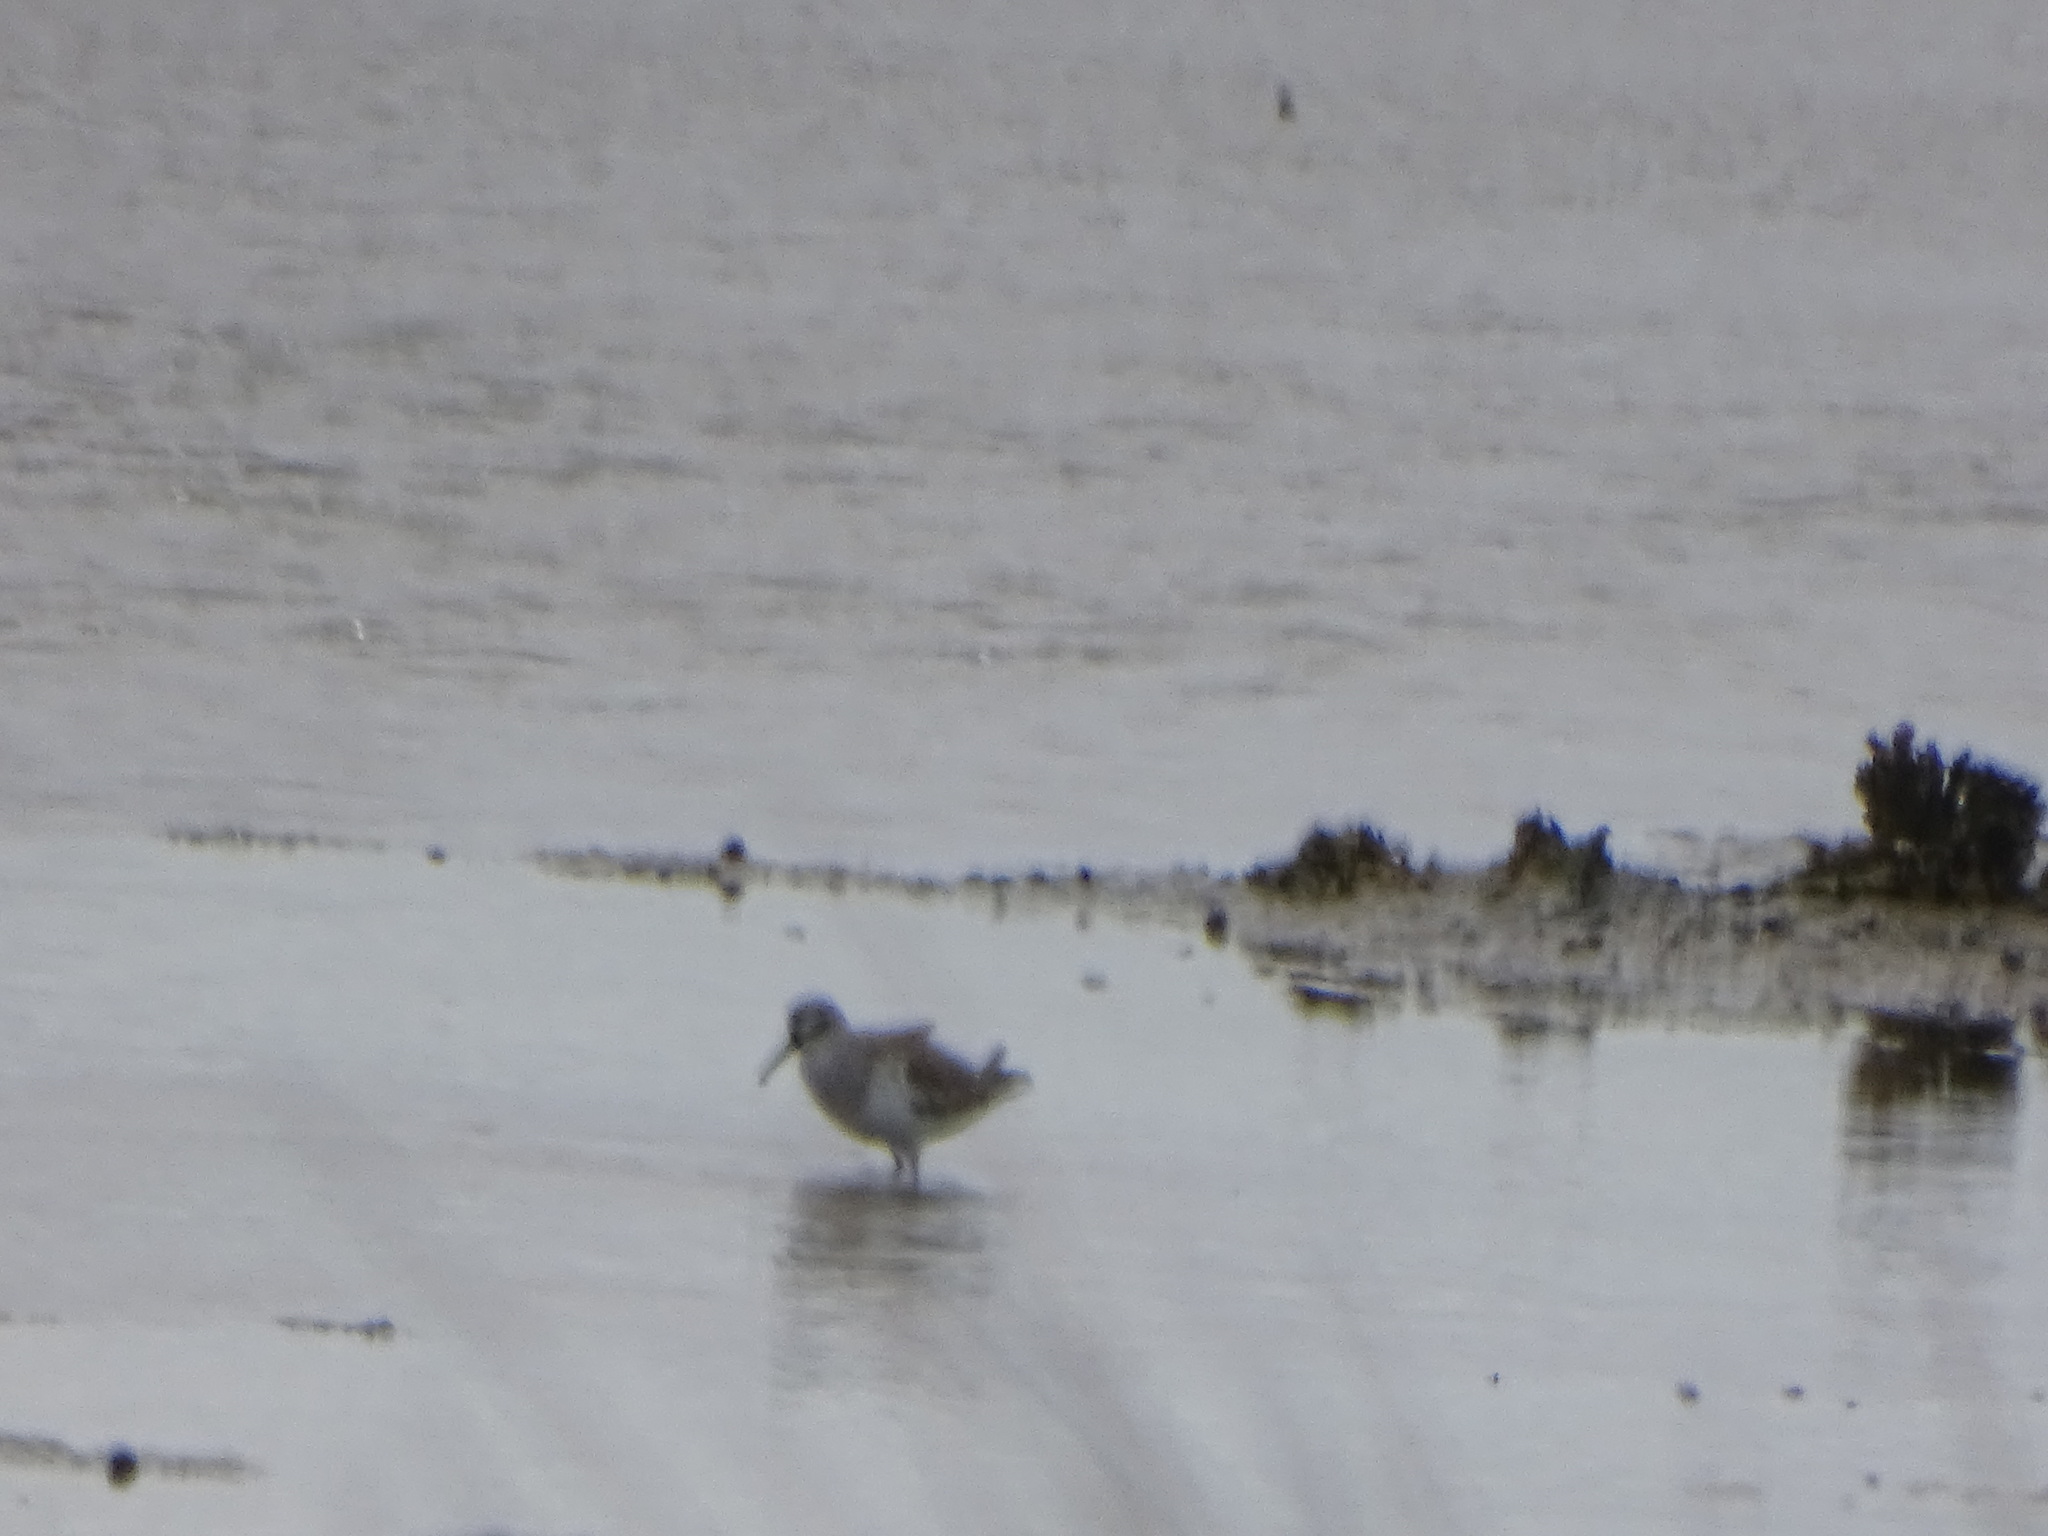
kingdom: Animalia
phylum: Chordata
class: Aves
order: Charadriiformes
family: Scolopacidae
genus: Calidris
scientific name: Calidris ferruginea
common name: Curlew sandpiper
